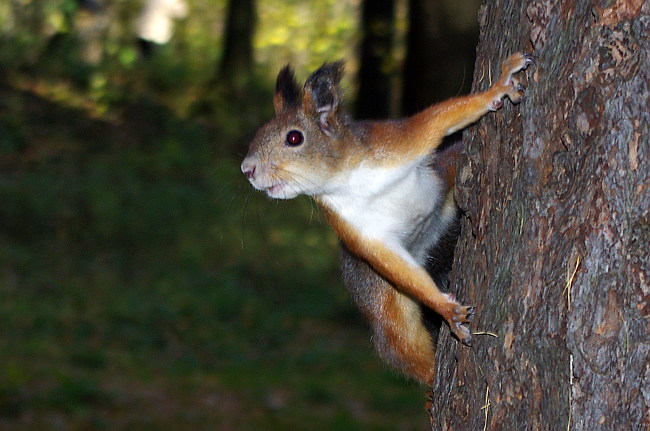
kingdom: Animalia
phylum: Chordata
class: Mammalia
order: Rodentia
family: Sciuridae
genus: Sciurus
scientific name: Sciurus vulgaris
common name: Eurasian red squirrel
